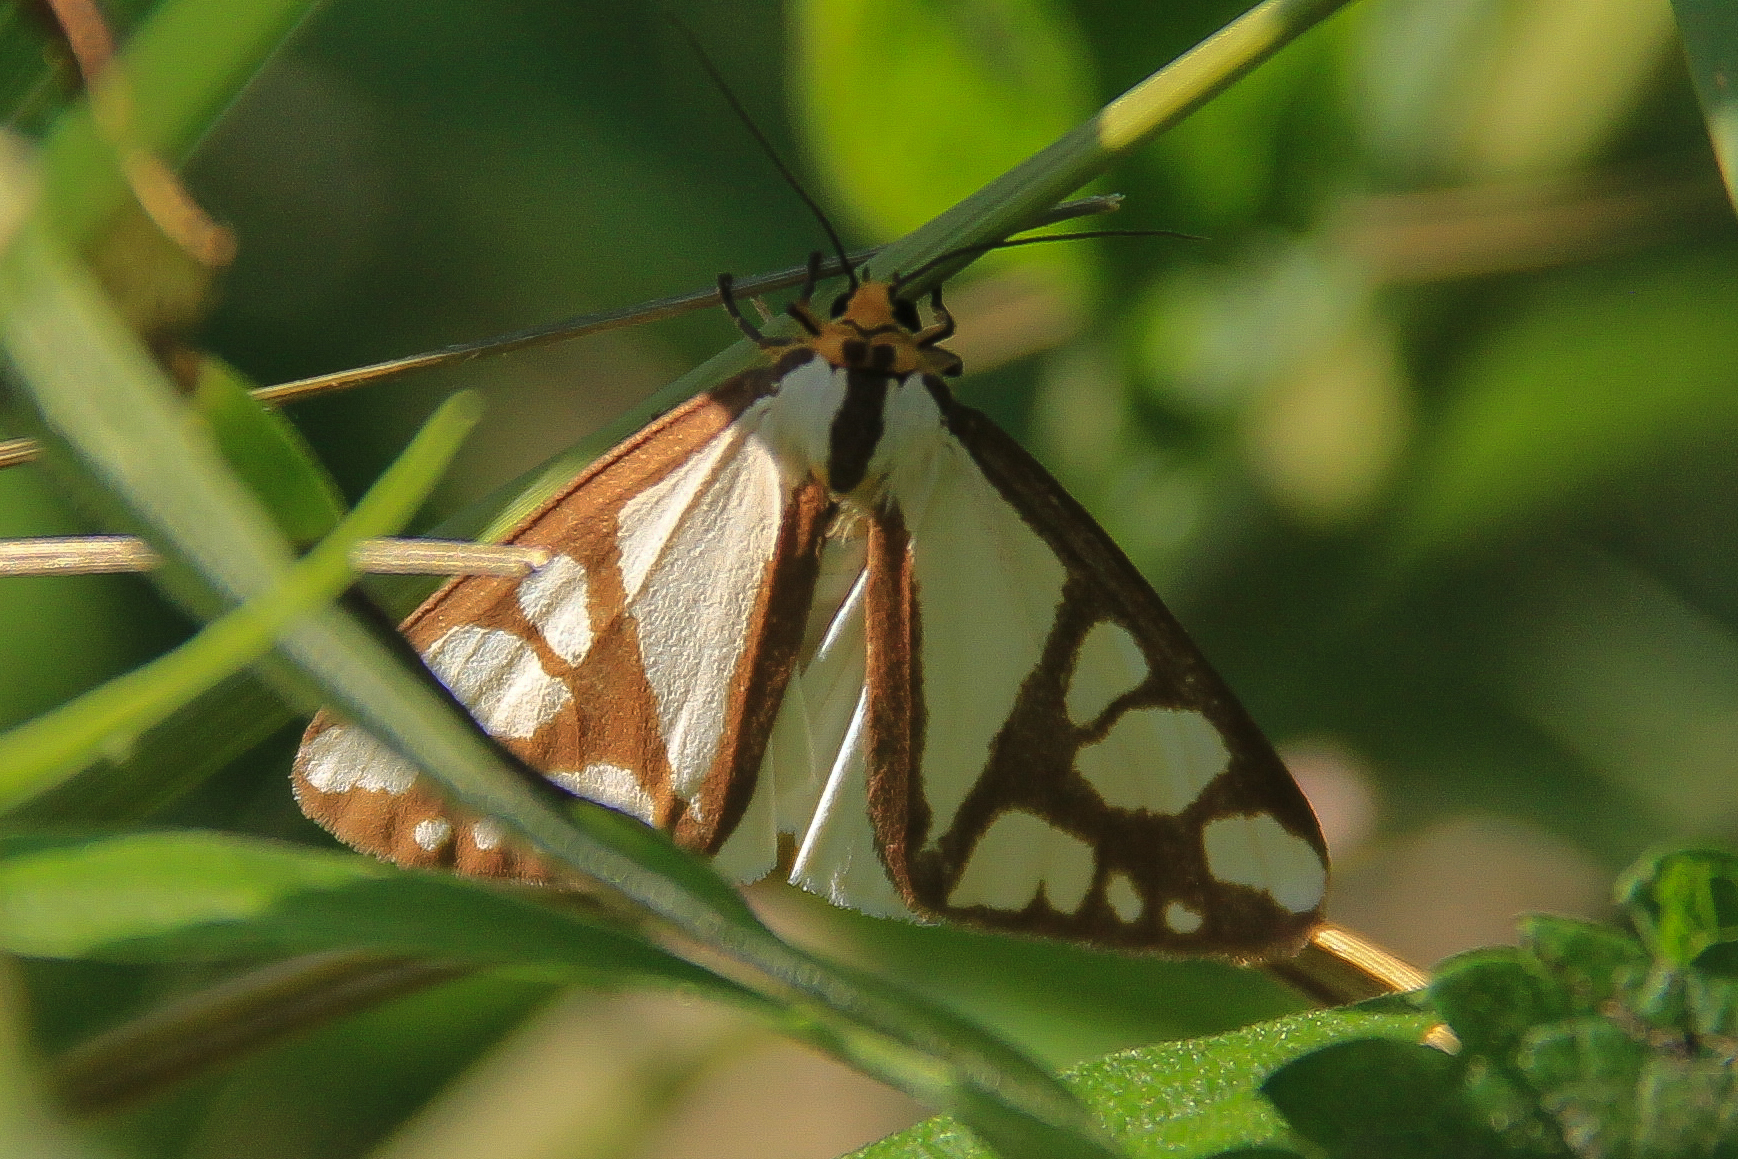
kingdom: Animalia
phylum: Arthropoda
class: Insecta
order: Lepidoptera
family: Erebidae
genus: Haploa
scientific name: Haploa reversa
